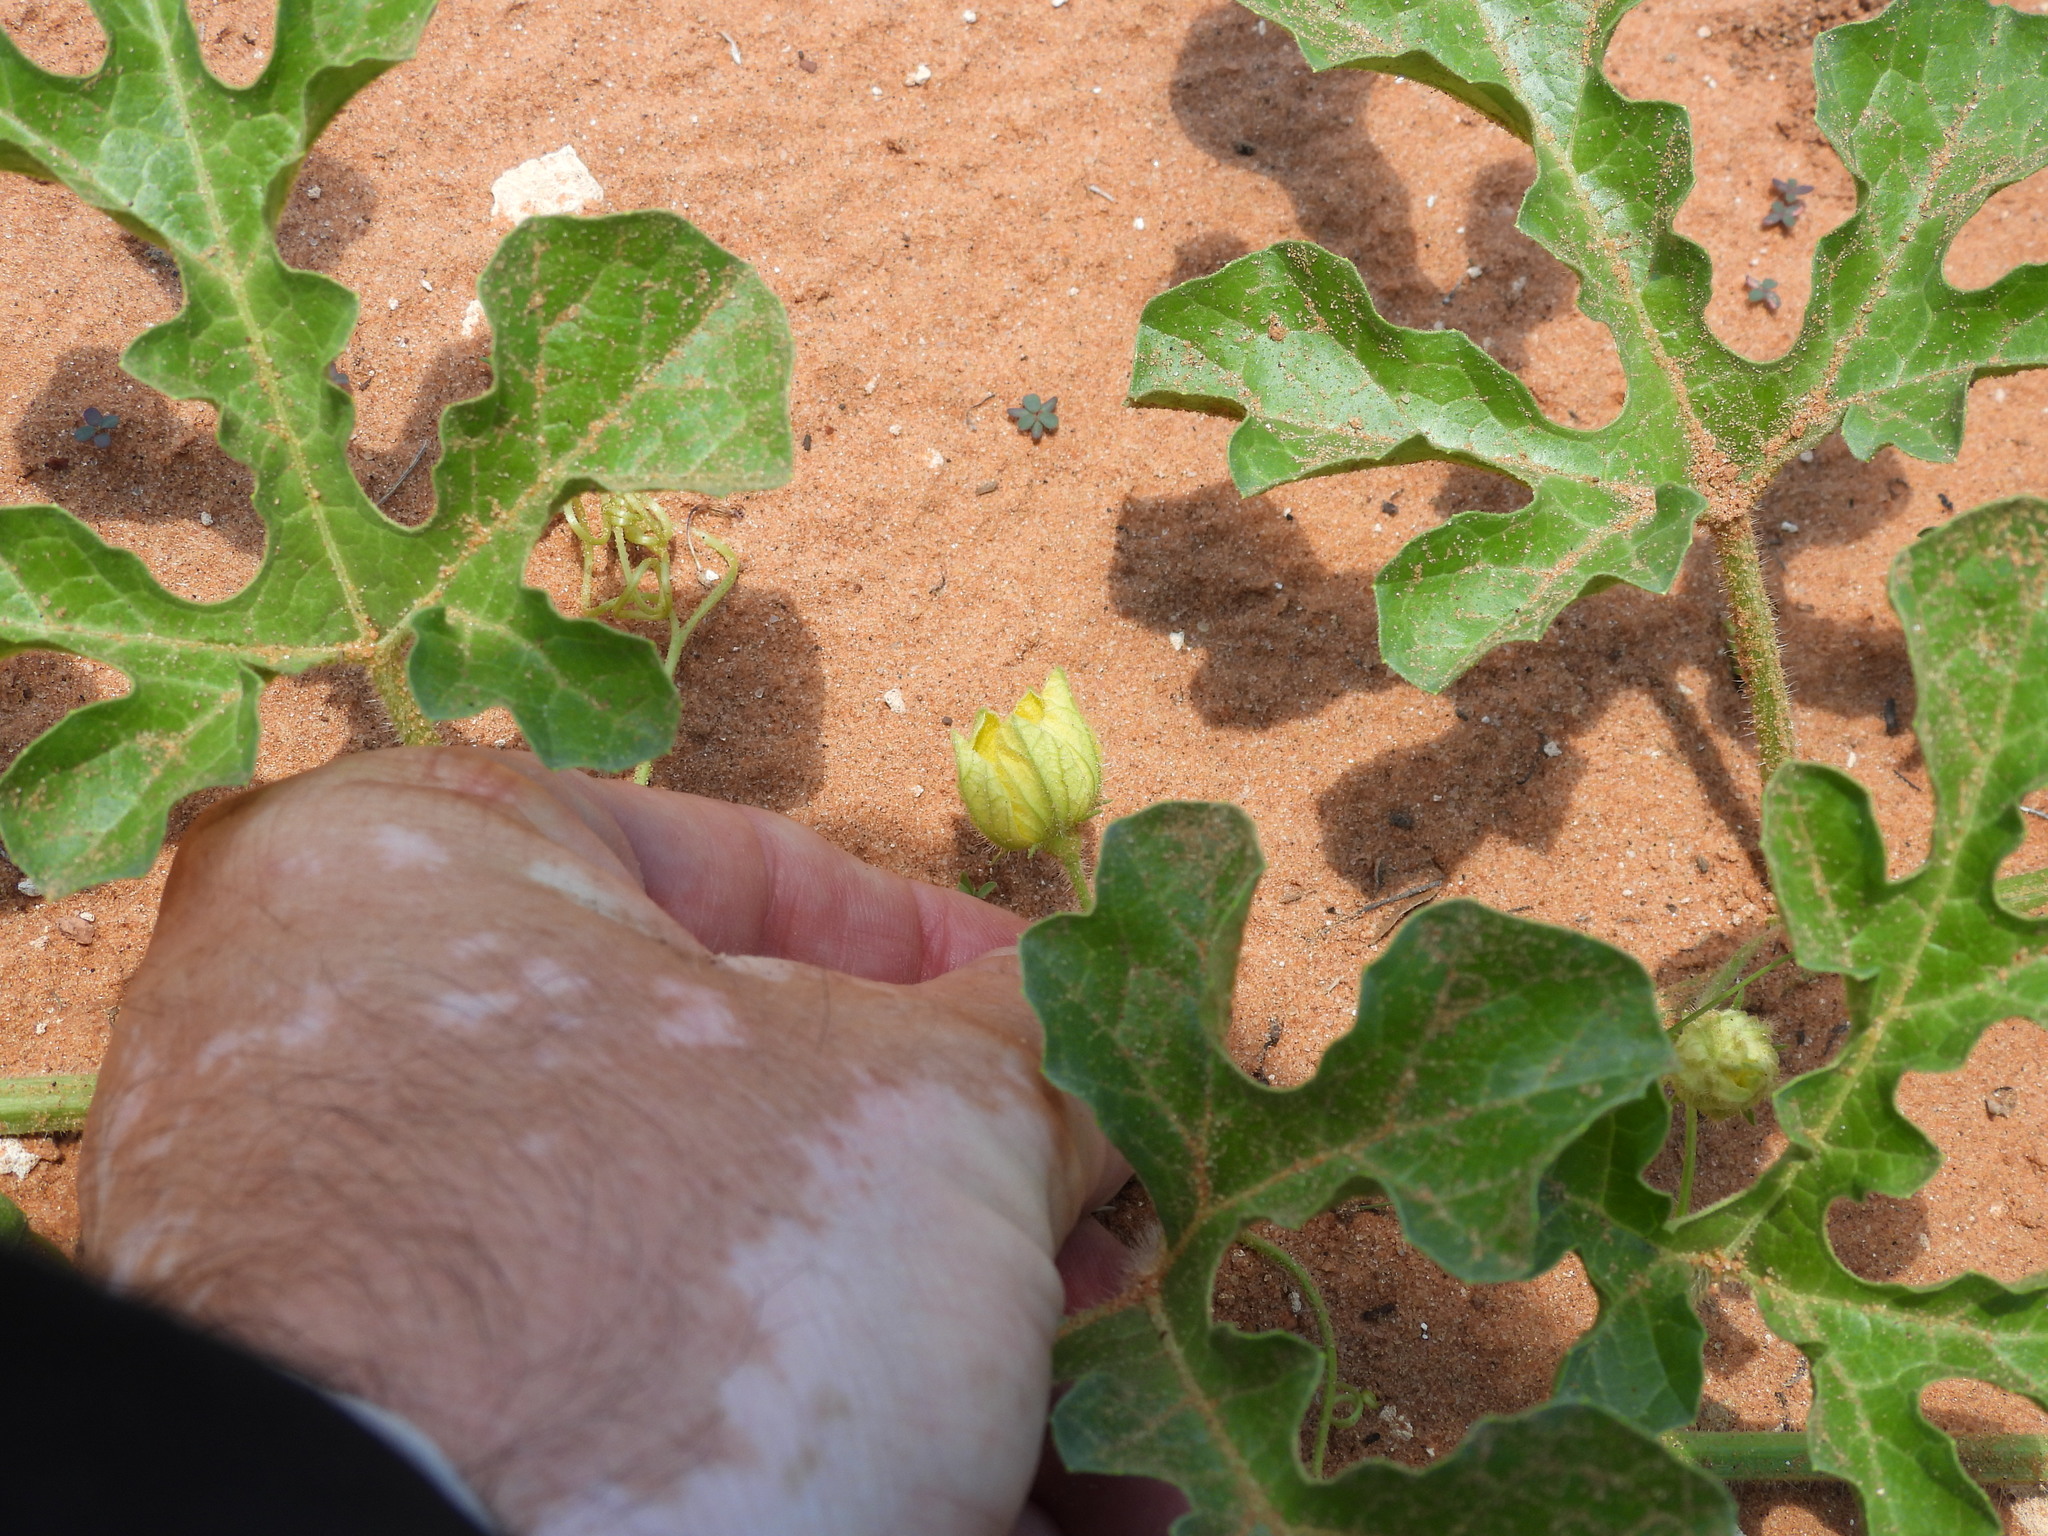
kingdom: Plantae
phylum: Tracheophyta
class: Magnoliopsida
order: Cucurbitales
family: Cucurbitaceae
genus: Citrullus
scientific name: Citrullus amarus
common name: Fodder-melon
